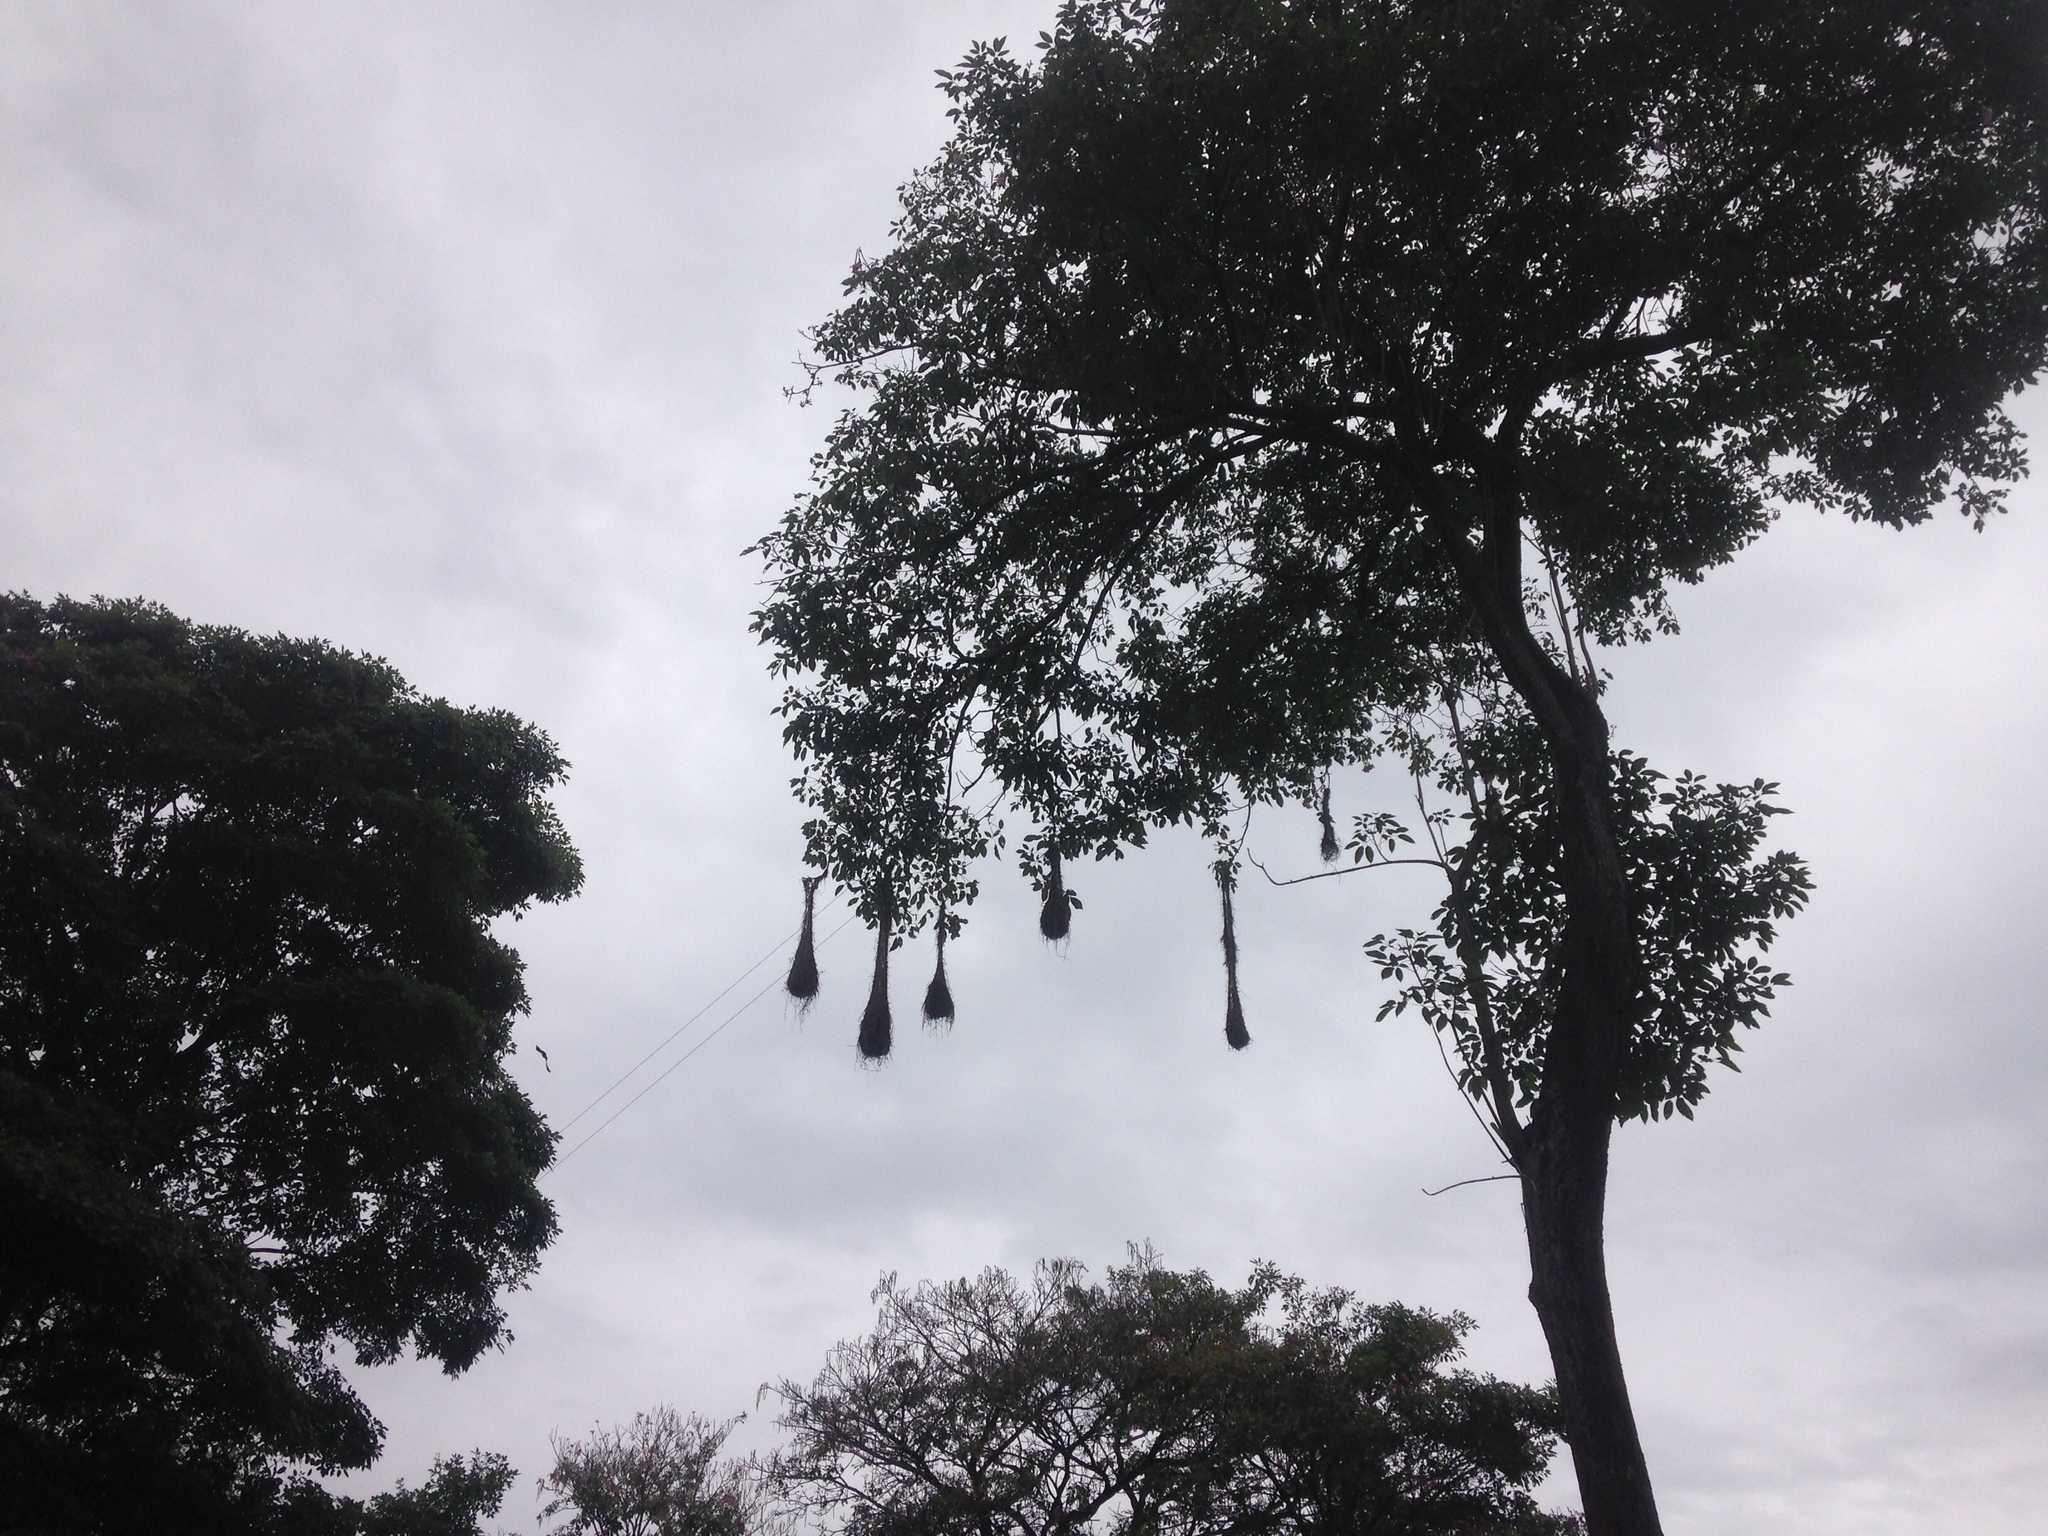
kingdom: Animalia
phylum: Chordata
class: Aves
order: Passeriformes
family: Icteridae
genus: Psarocolius
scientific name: Psarocolius decumanus
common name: Crested oropendola
